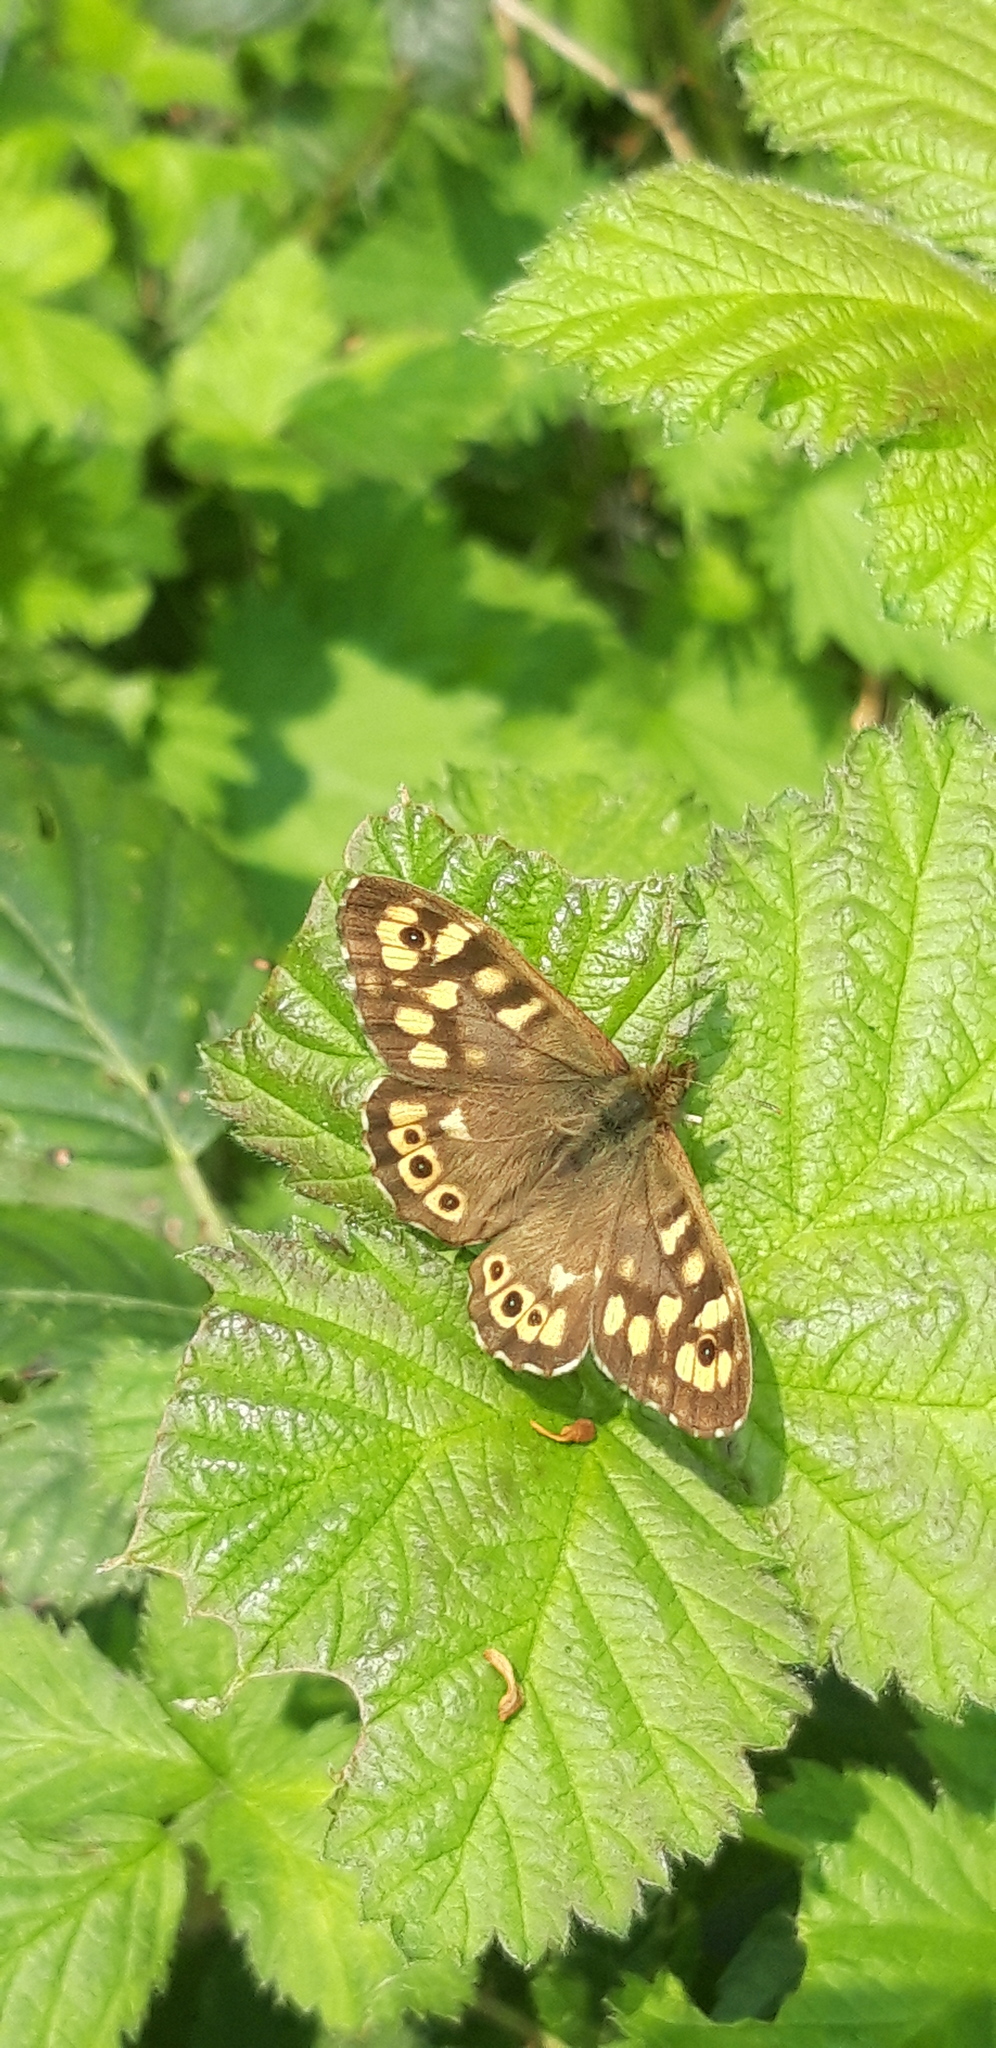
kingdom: Animalia
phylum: Arthropoda
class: Insecta
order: Lepidoptera
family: Nymphalidae
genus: Pararge
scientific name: Pararge aegeria
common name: Speckled wood
